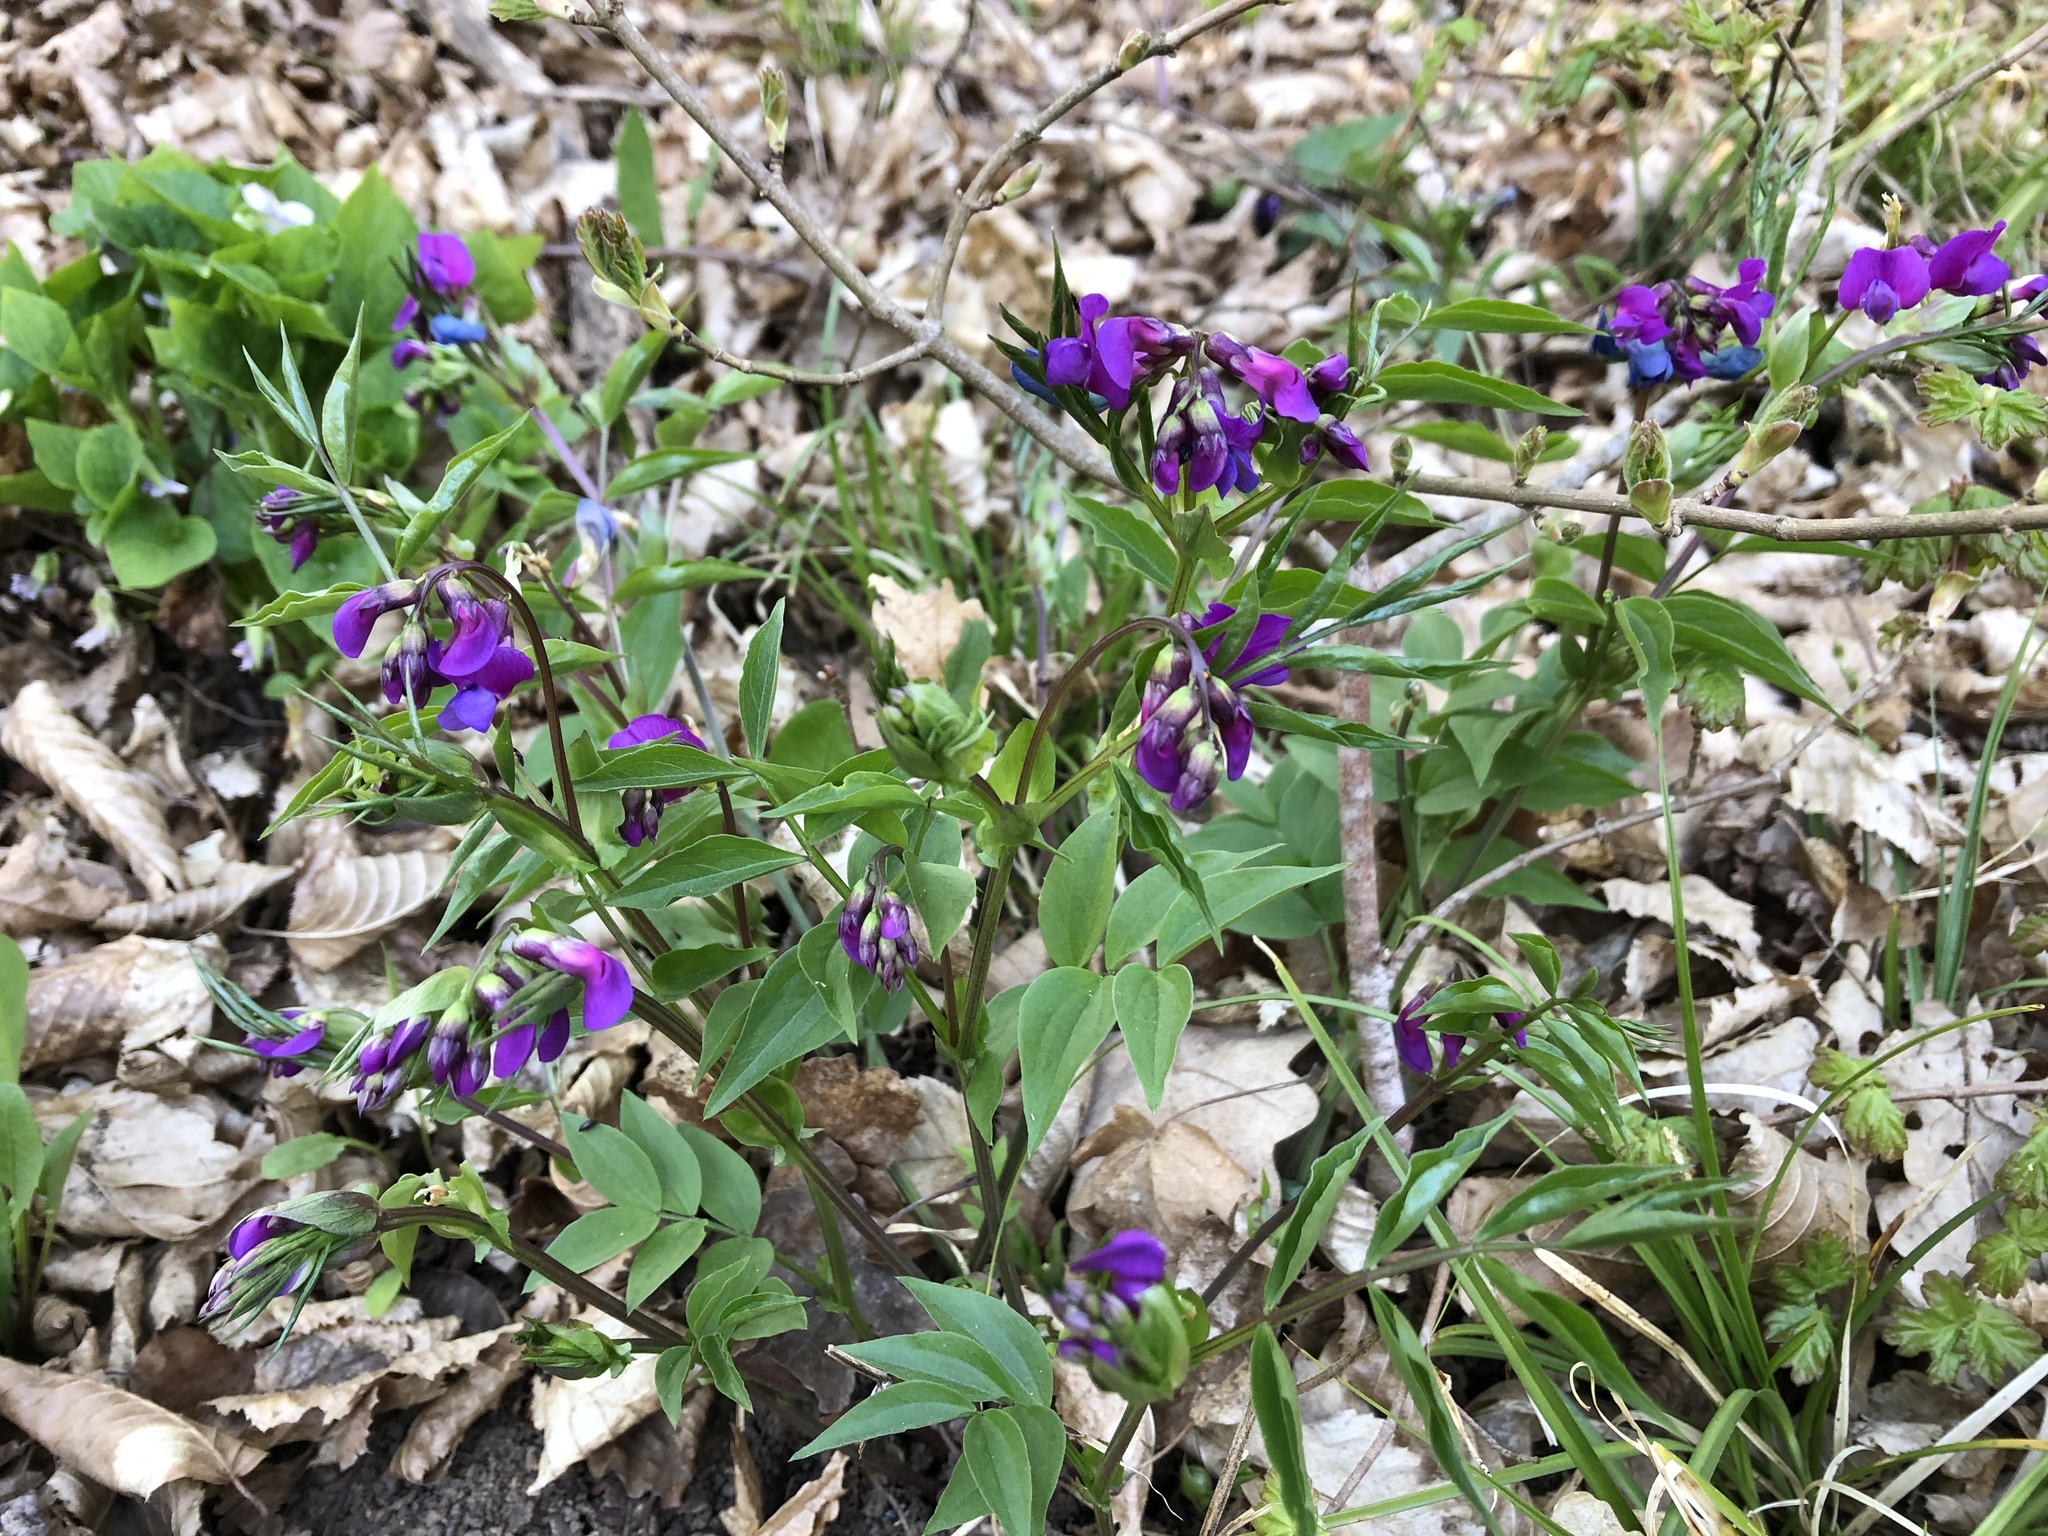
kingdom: Plantae
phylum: Tracheophyta
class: Magnoliopsida
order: Fabales
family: Fabaceae
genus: Lathyrus
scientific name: Lathyrus vernus
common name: Spring pea
